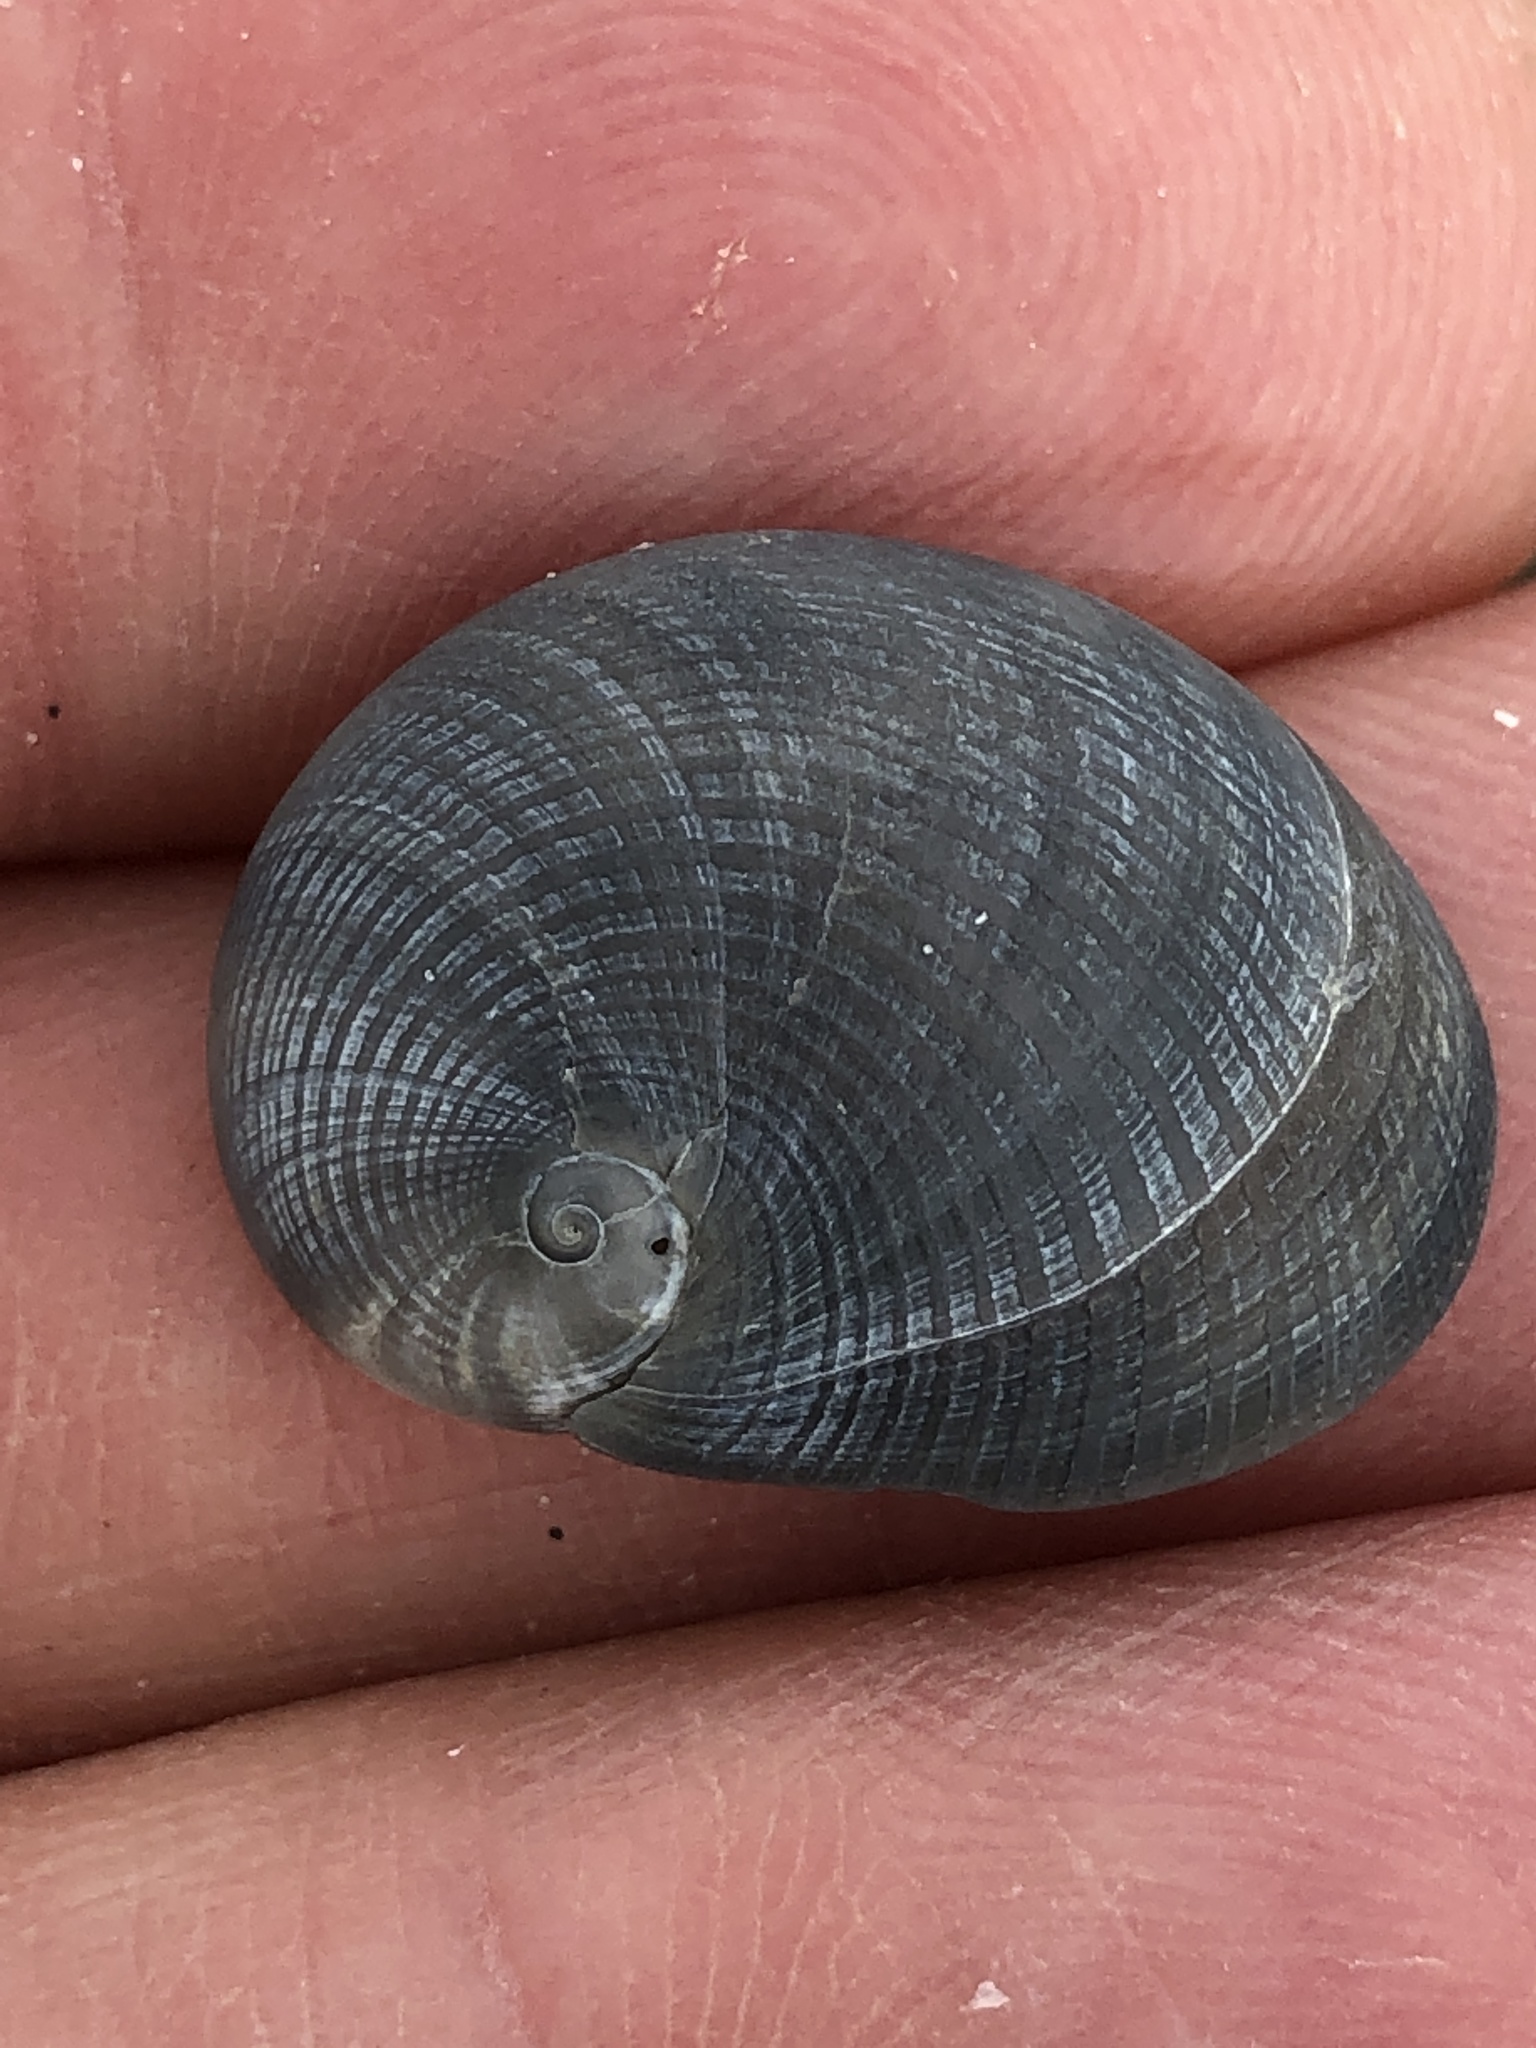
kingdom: Animalia
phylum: Mollusca
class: Gastropoda
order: Littorinimorpha
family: Naticidae
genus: Sinum
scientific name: Sinum perspectivum
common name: White baby ear
